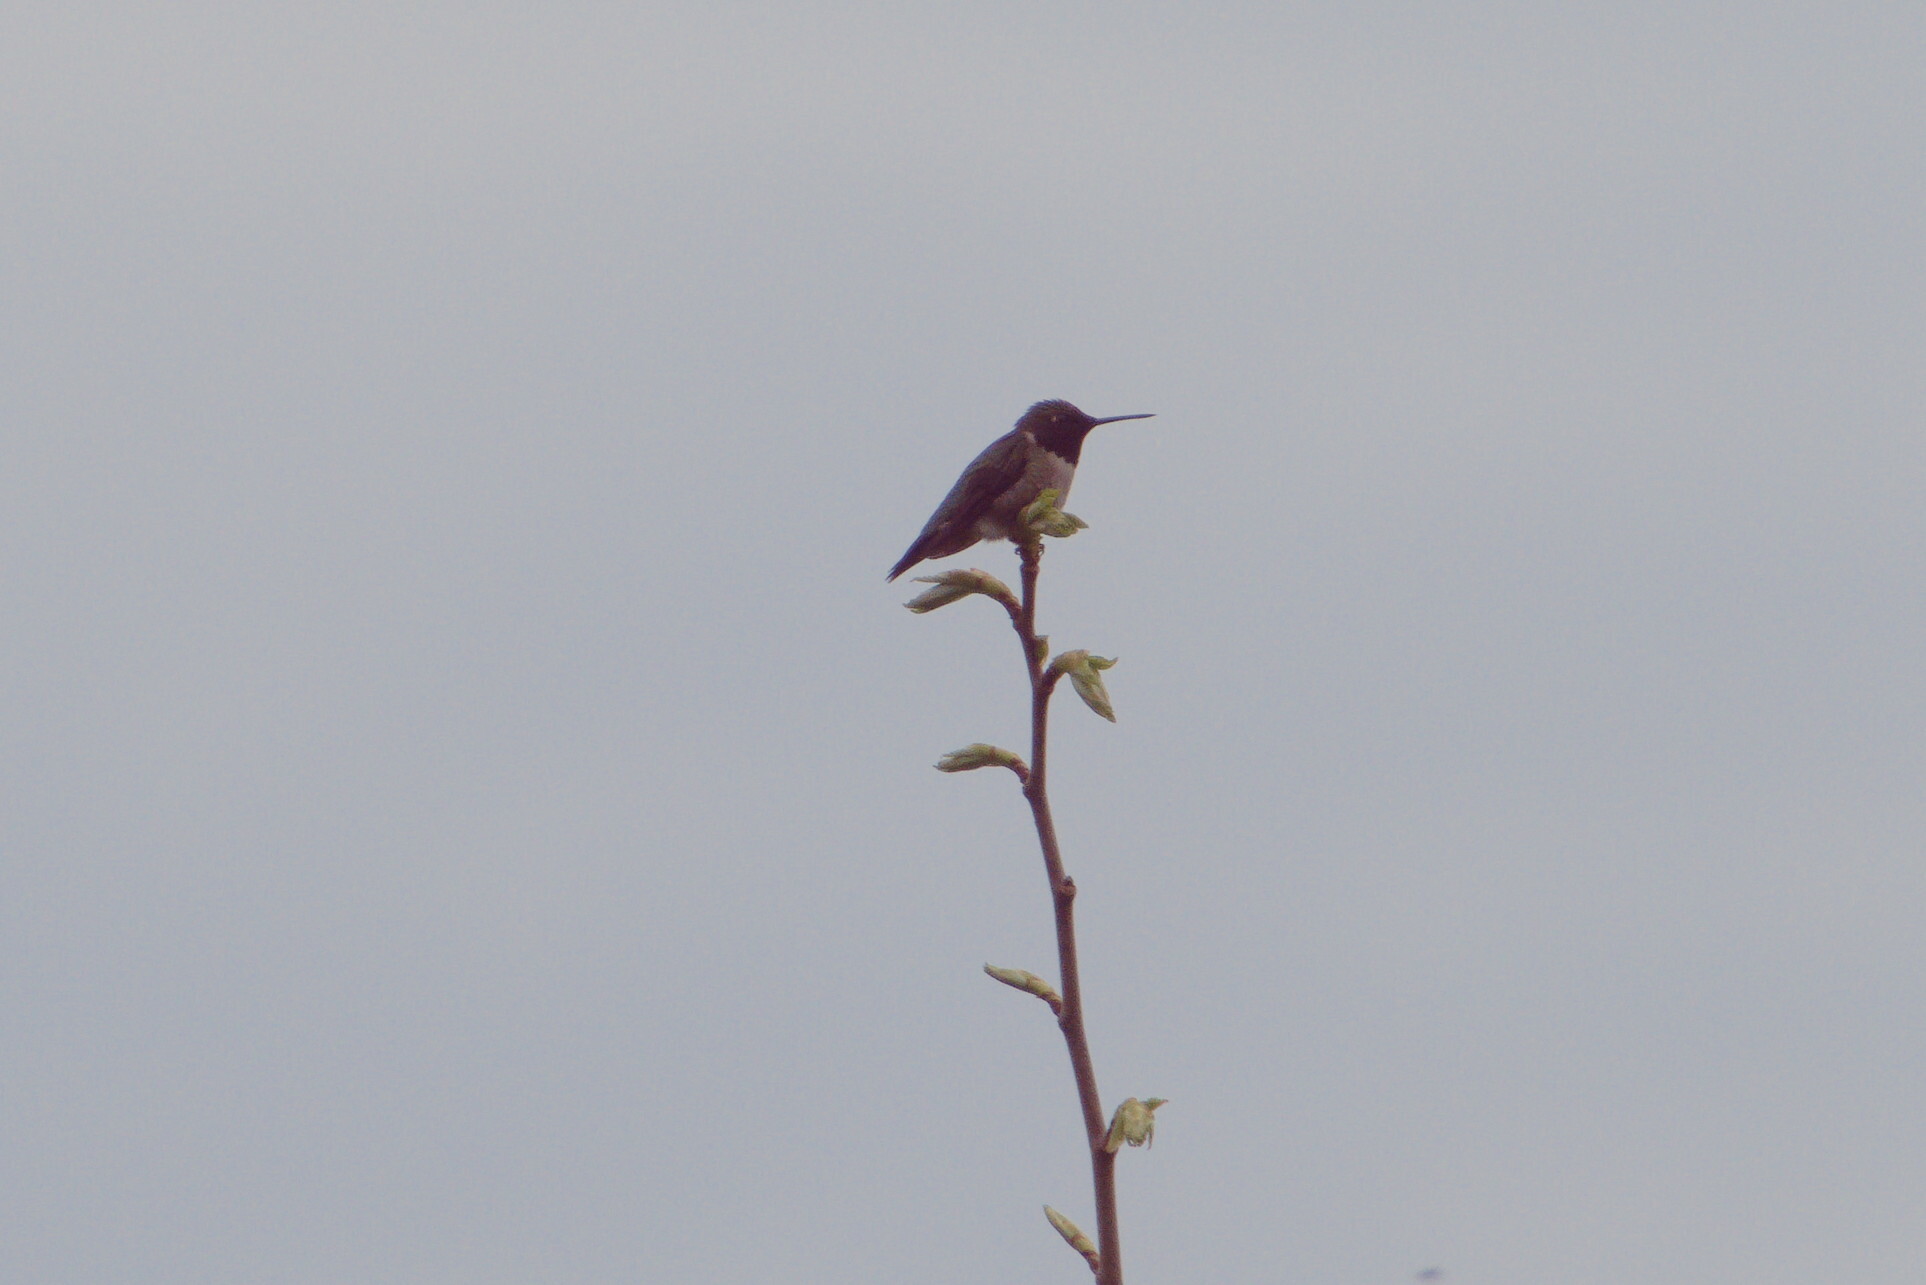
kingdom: Animalia
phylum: Chordata
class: Aves
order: Apodiformes
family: Trochilidae
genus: Archilochus
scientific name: Archilochus colubris
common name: Ruby-throated hummingbird
